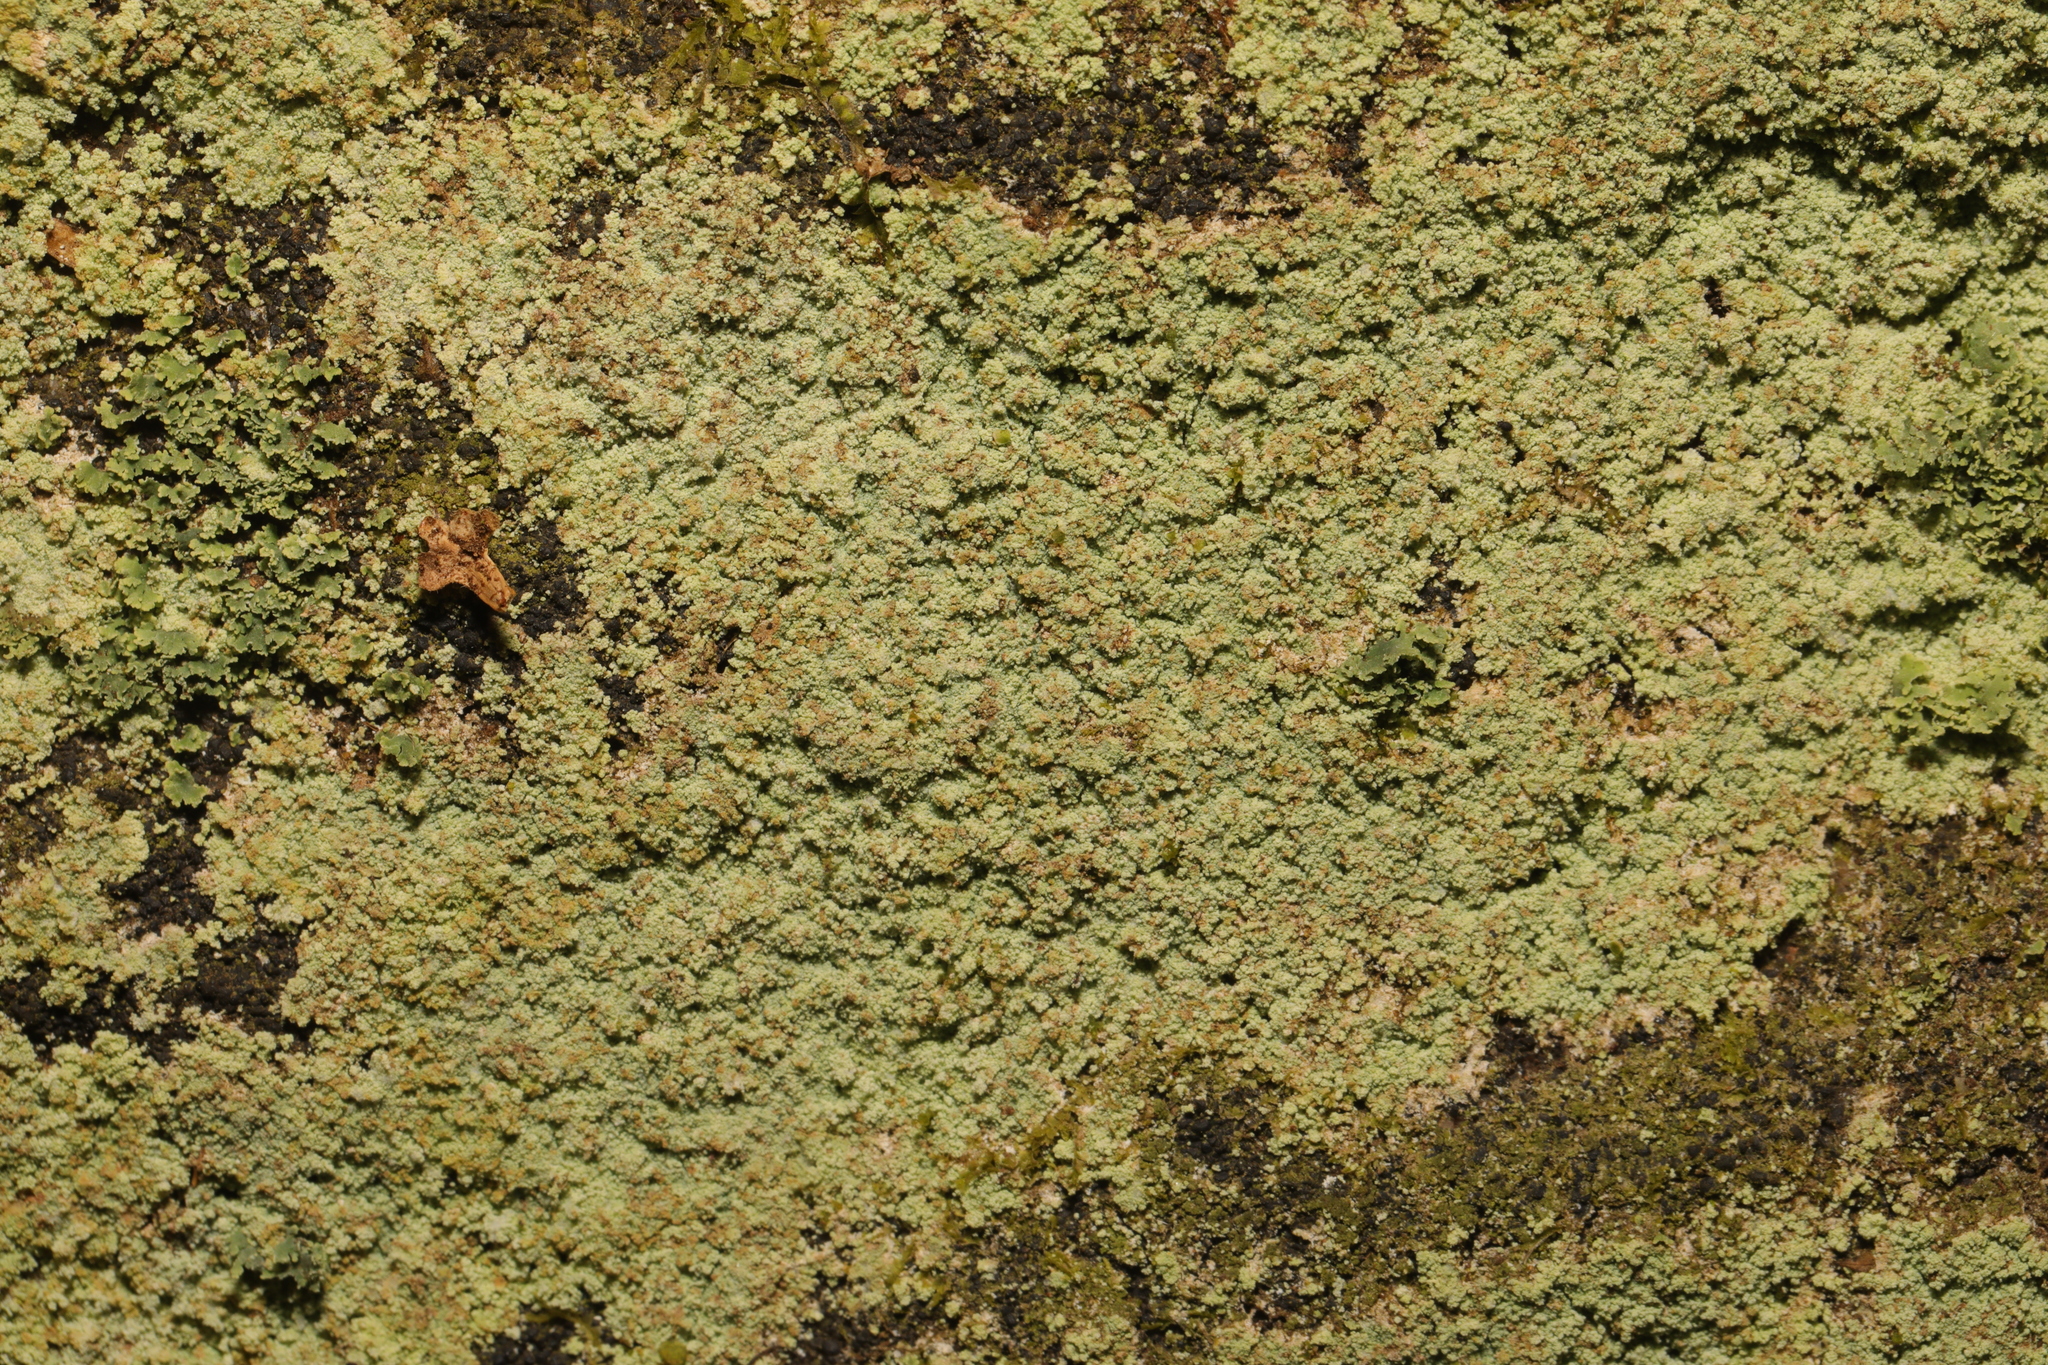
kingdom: Fungi
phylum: Ascomycota
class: Lecanoromycetes
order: Lecanorales
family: Stereocaulaceae
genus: Lepraria
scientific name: Lepraria
